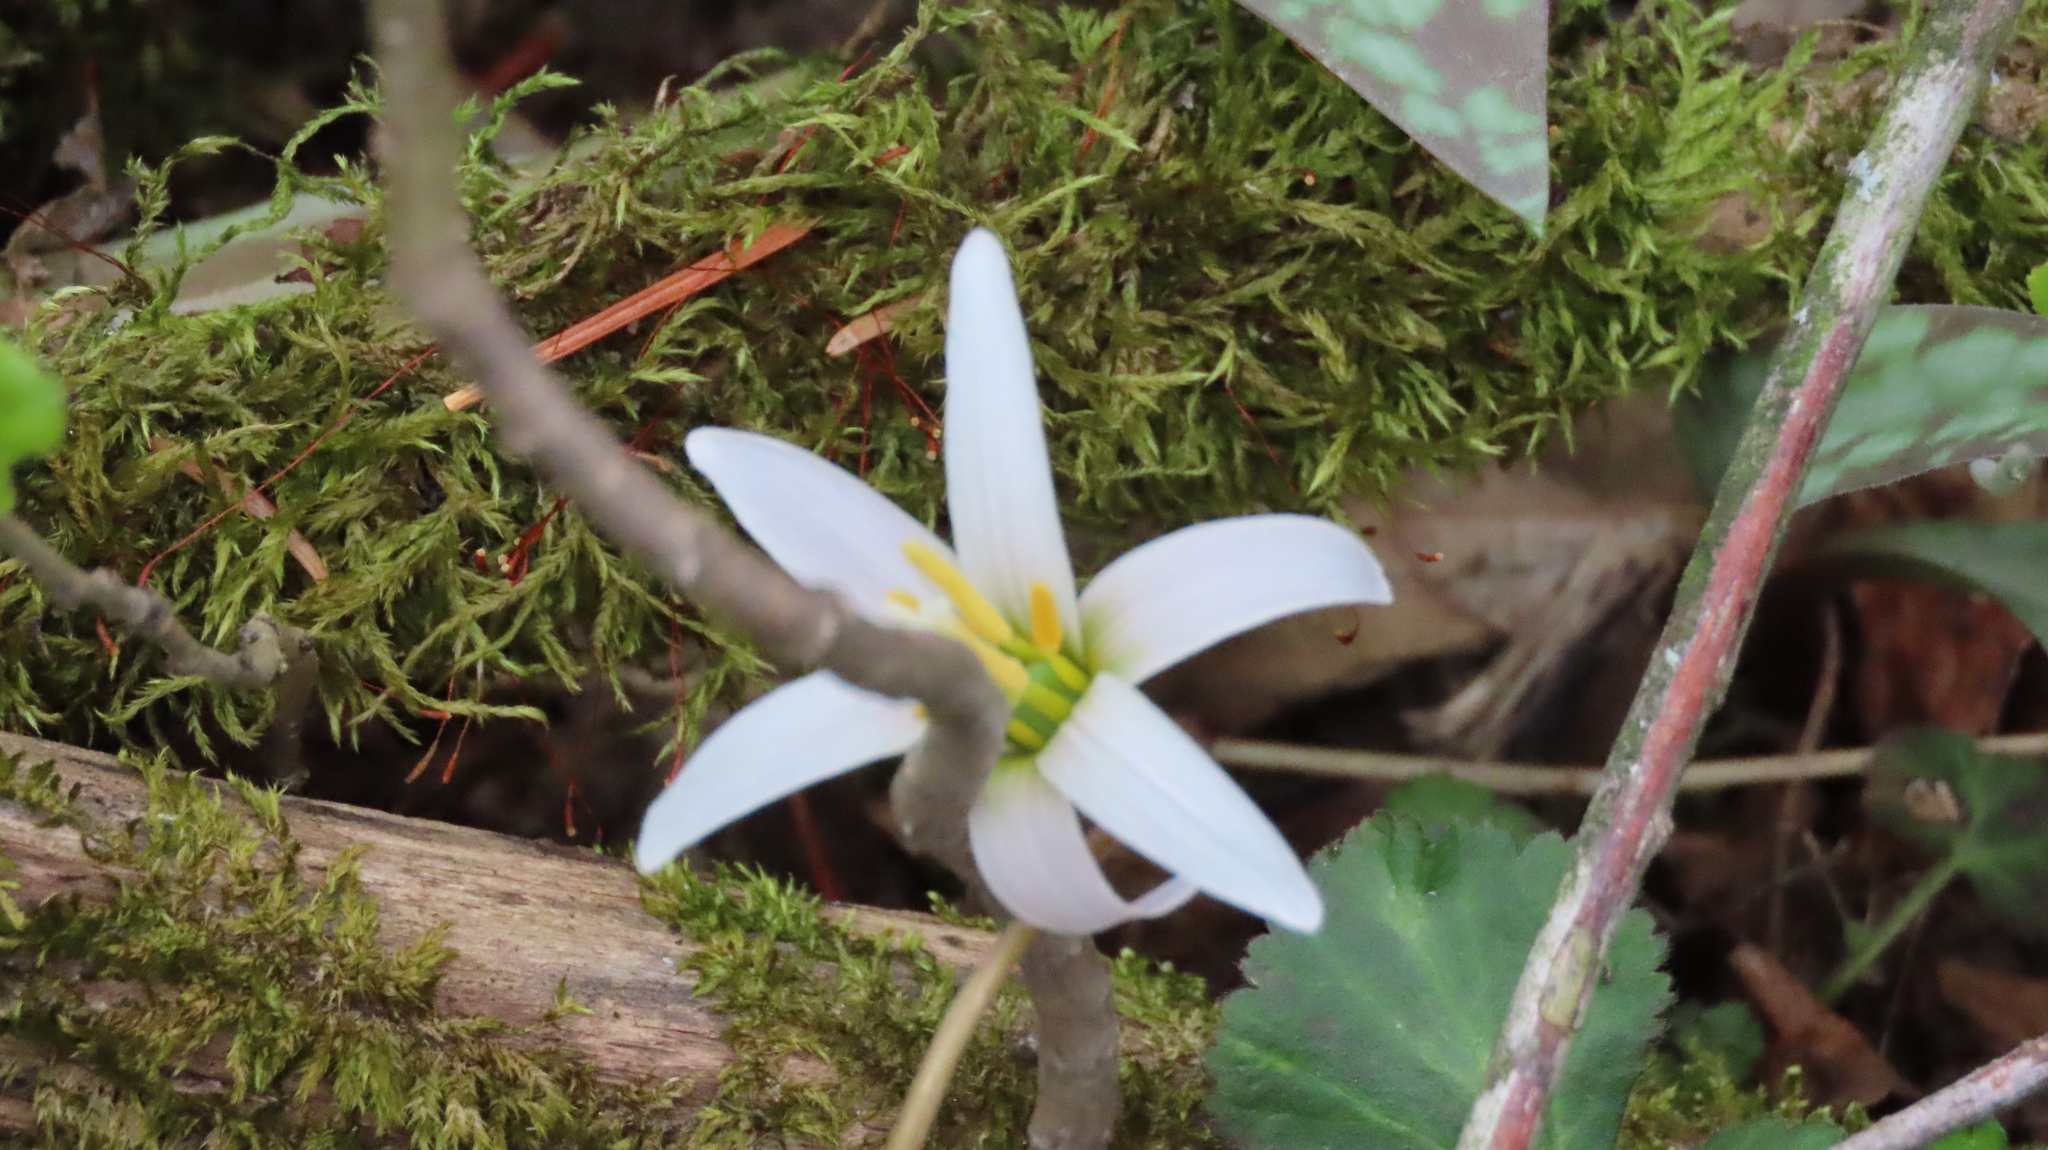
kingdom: Plantae
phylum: Tracheophyta
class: Liliopsida
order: Liliales
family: Liliaceae
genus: Erythronium
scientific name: Erythronium albidum
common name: White trout-lily
